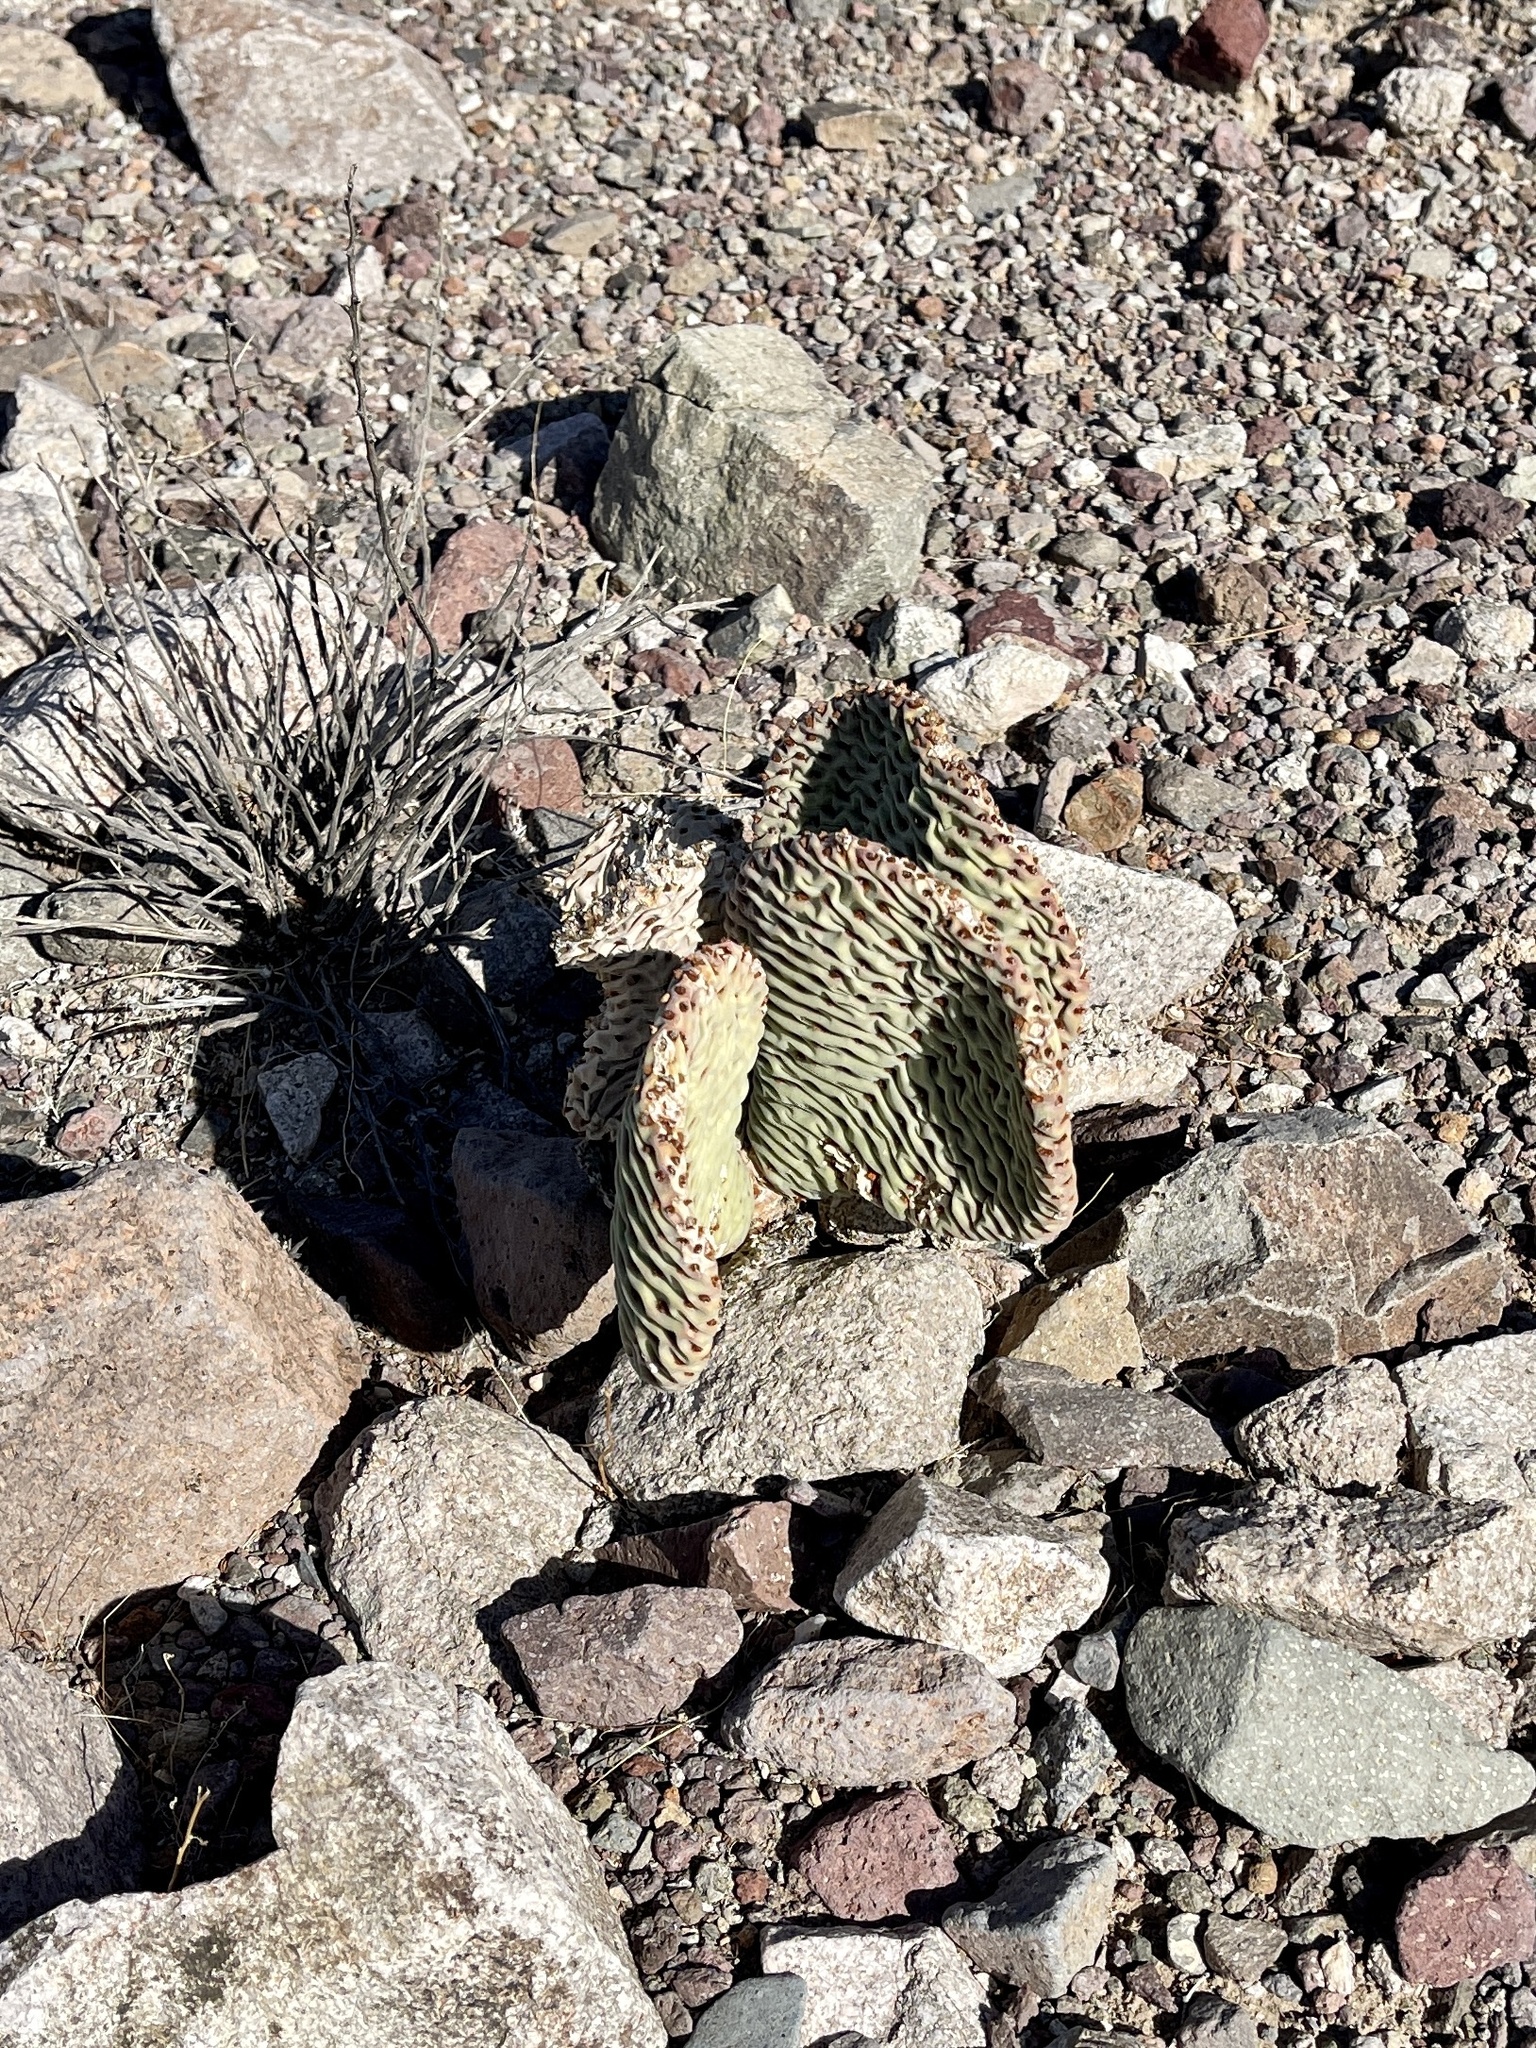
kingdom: Plantae
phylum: Tracheophyta
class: Magnoliopsida
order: Caryophyllales
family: Cactaceae
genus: Opuntia
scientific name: Opuntia basilaris
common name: Beavertail prickly-pear
